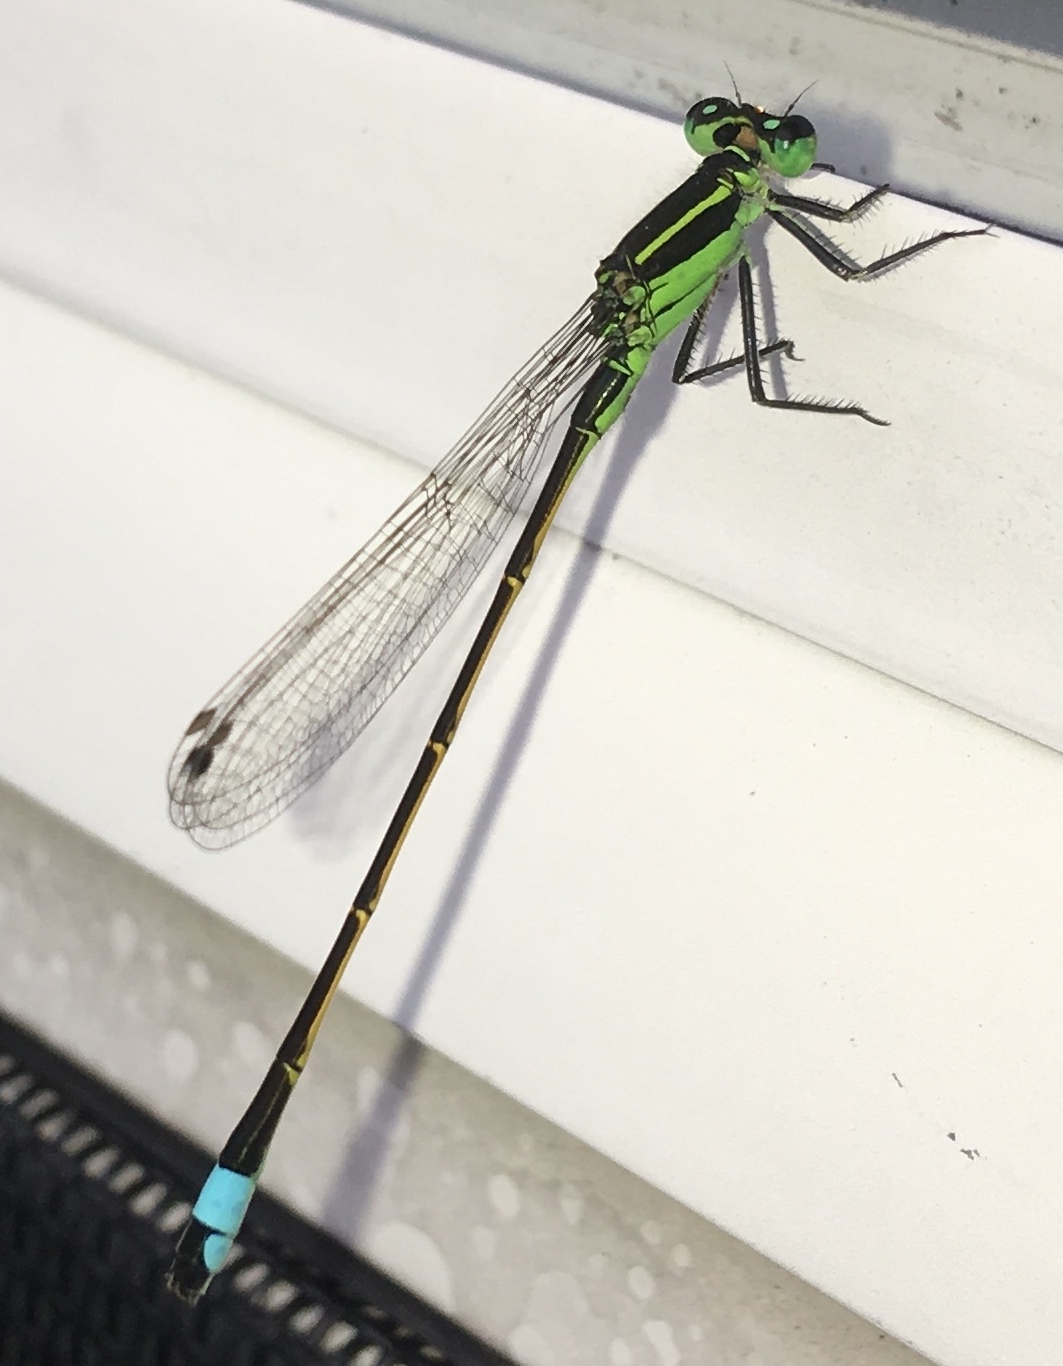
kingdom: Animalia
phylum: Arthropoda
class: Insecta
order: Odonata
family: Coenagrionidae
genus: Ischnura
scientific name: Ischnura ramburii
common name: Rambur's forktail
